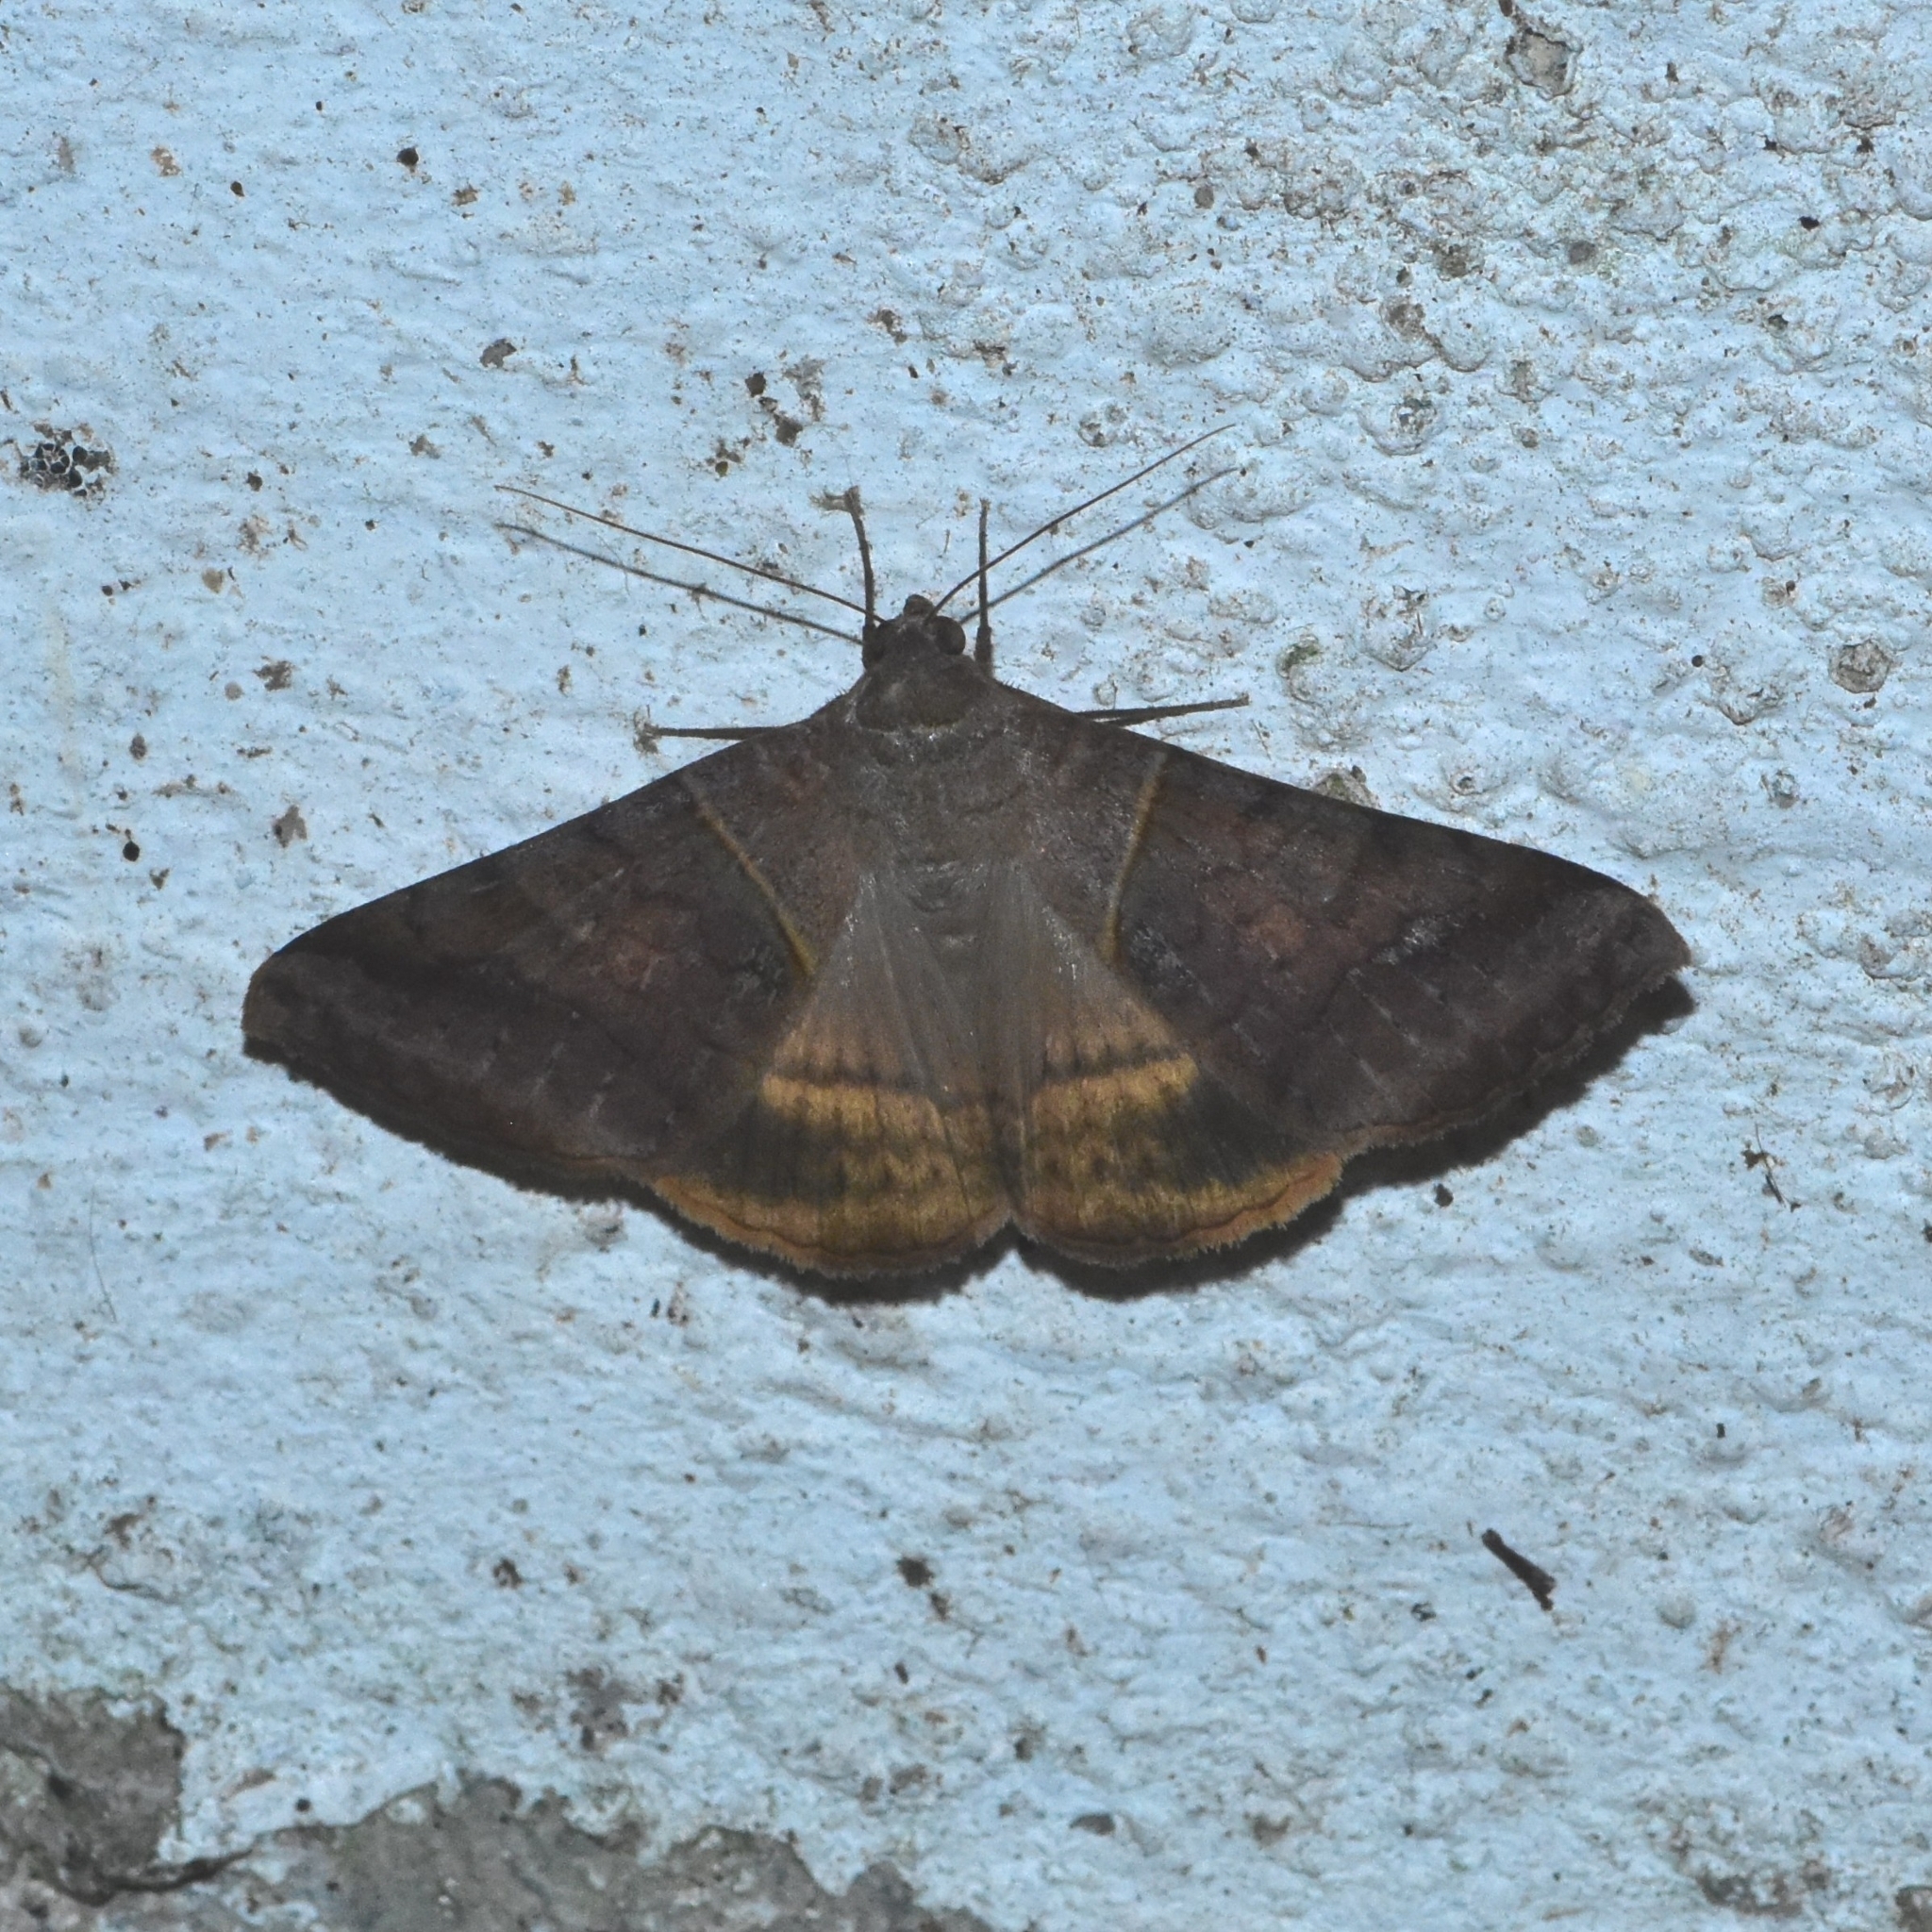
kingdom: Animalia
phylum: Arthropoda
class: Insecta
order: Lepidoptera
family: Erebidae
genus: Mocis
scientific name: Mocis undata
